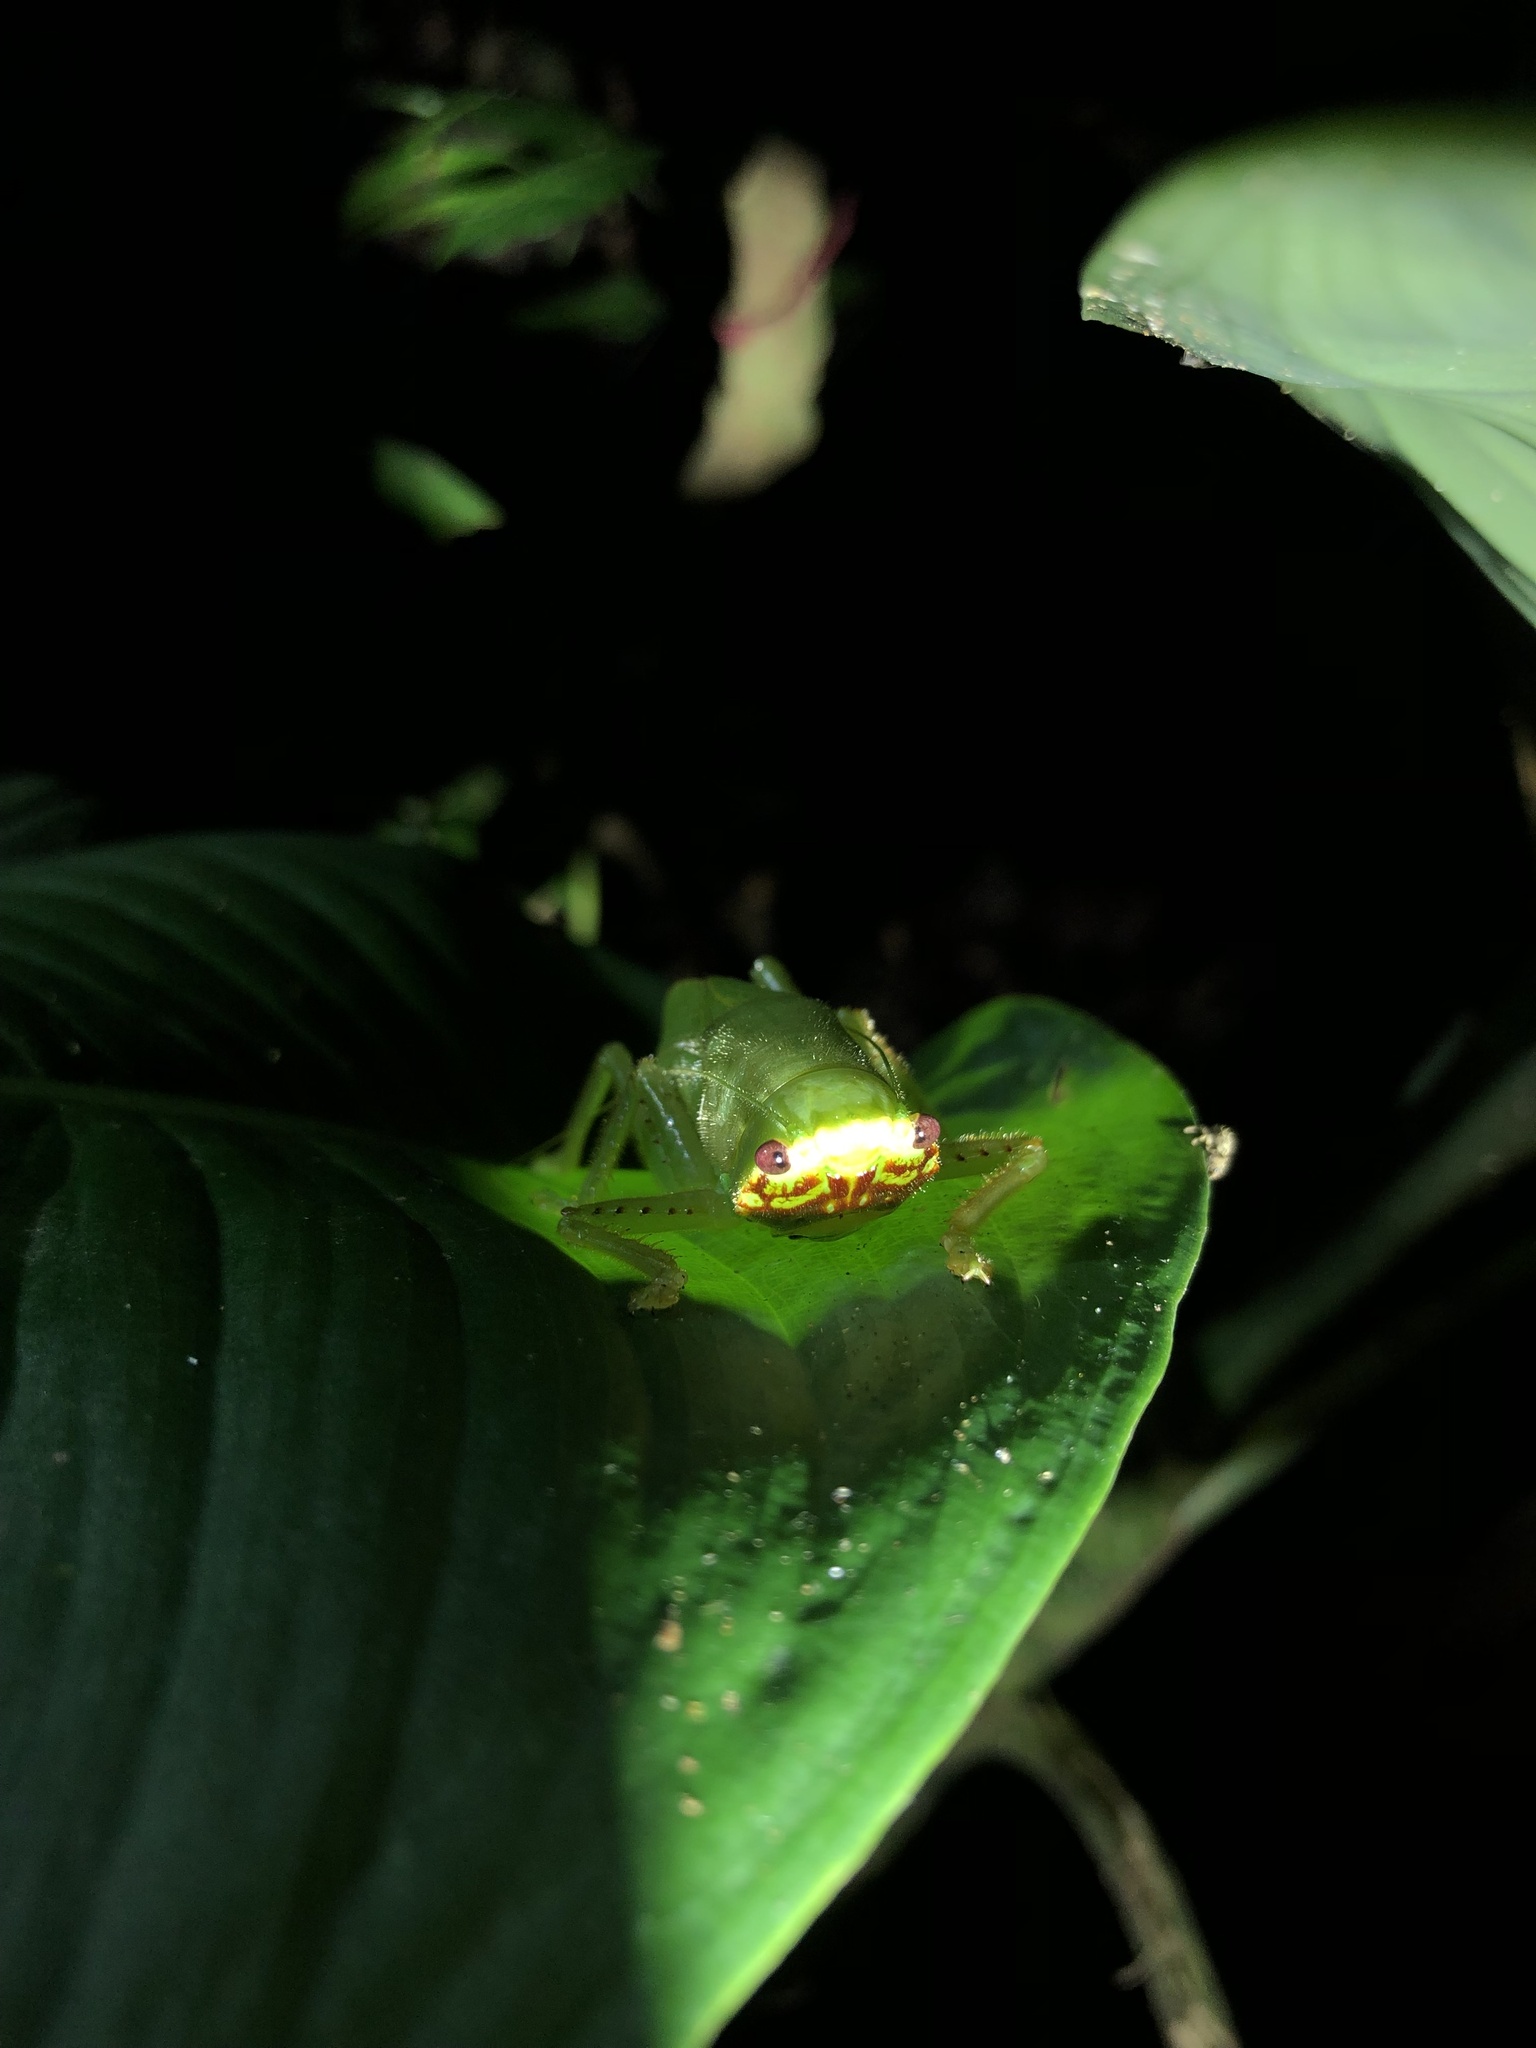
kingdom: Animalia
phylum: Arthropoda
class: Insecta
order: Orthoptera
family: Tettigoniidae
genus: Lirometopum
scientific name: Lirometopum coronatum
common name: Pitbull katydid
